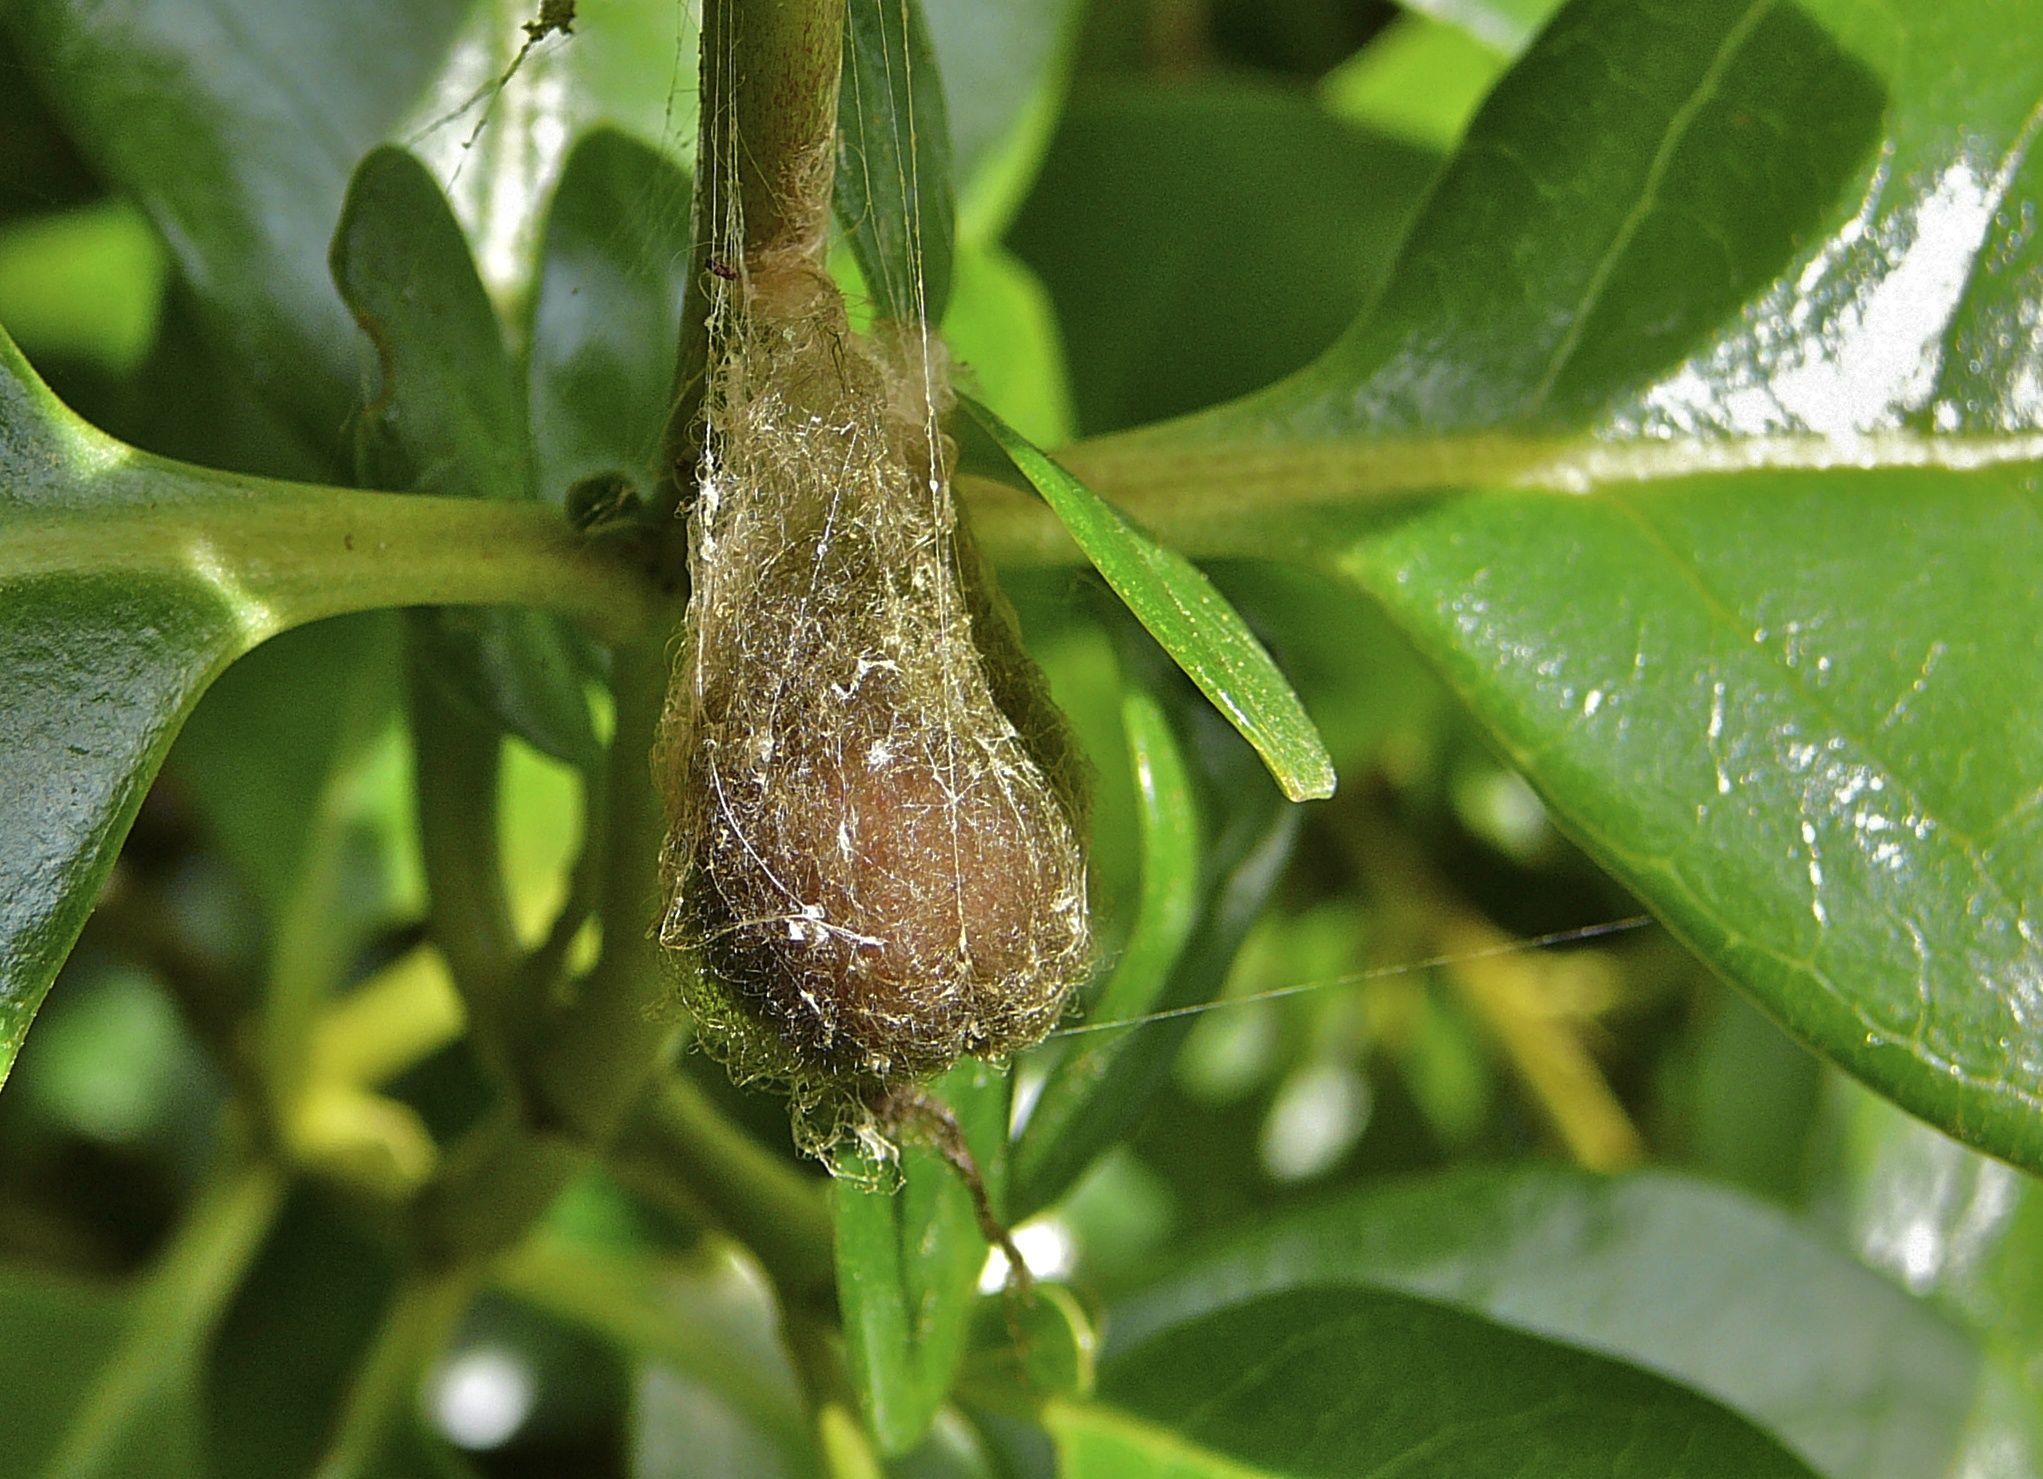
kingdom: Animalia
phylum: Arthropoda
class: Arachnida
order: Araneae
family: Araneidae
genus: Eriophora
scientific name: Eriophora pustulosa
